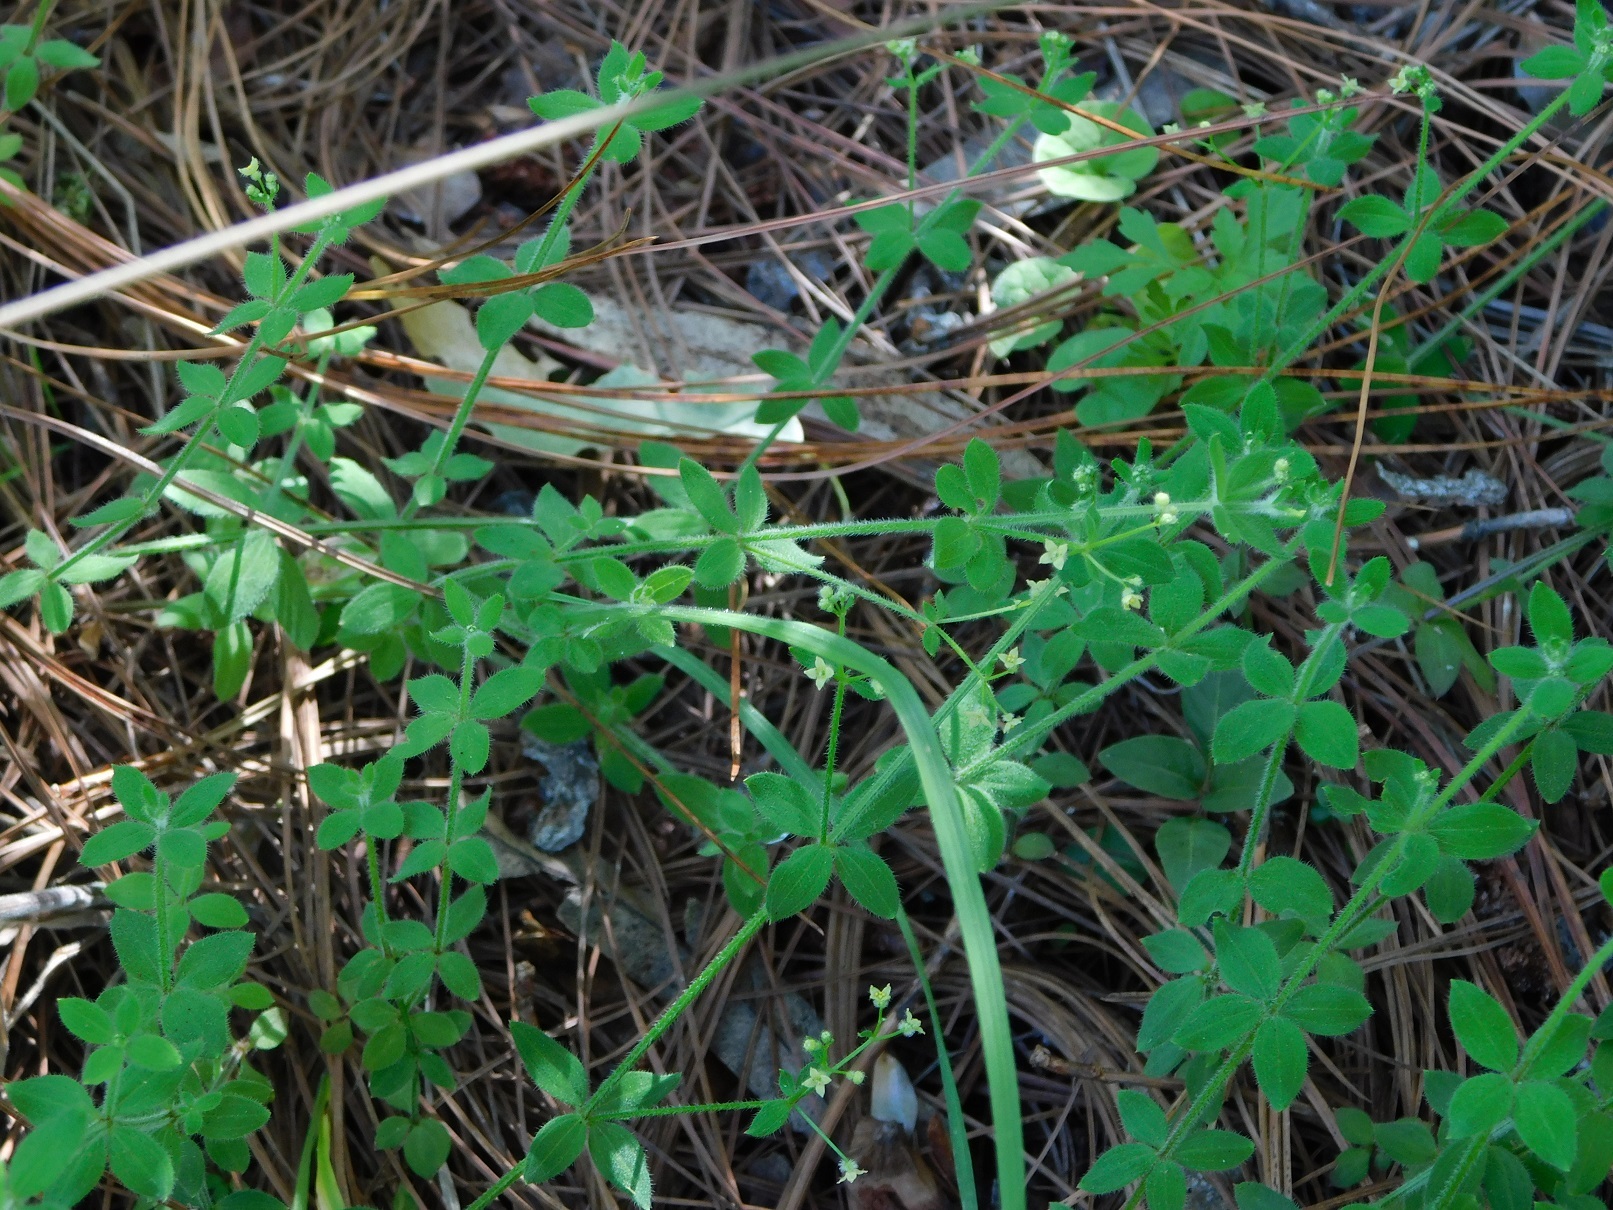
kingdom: Plantae
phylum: Tracheophyta
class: Magnoliopsida
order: Gentianales
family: Rubiaceae
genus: Galium
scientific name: Galium uncinulatum
